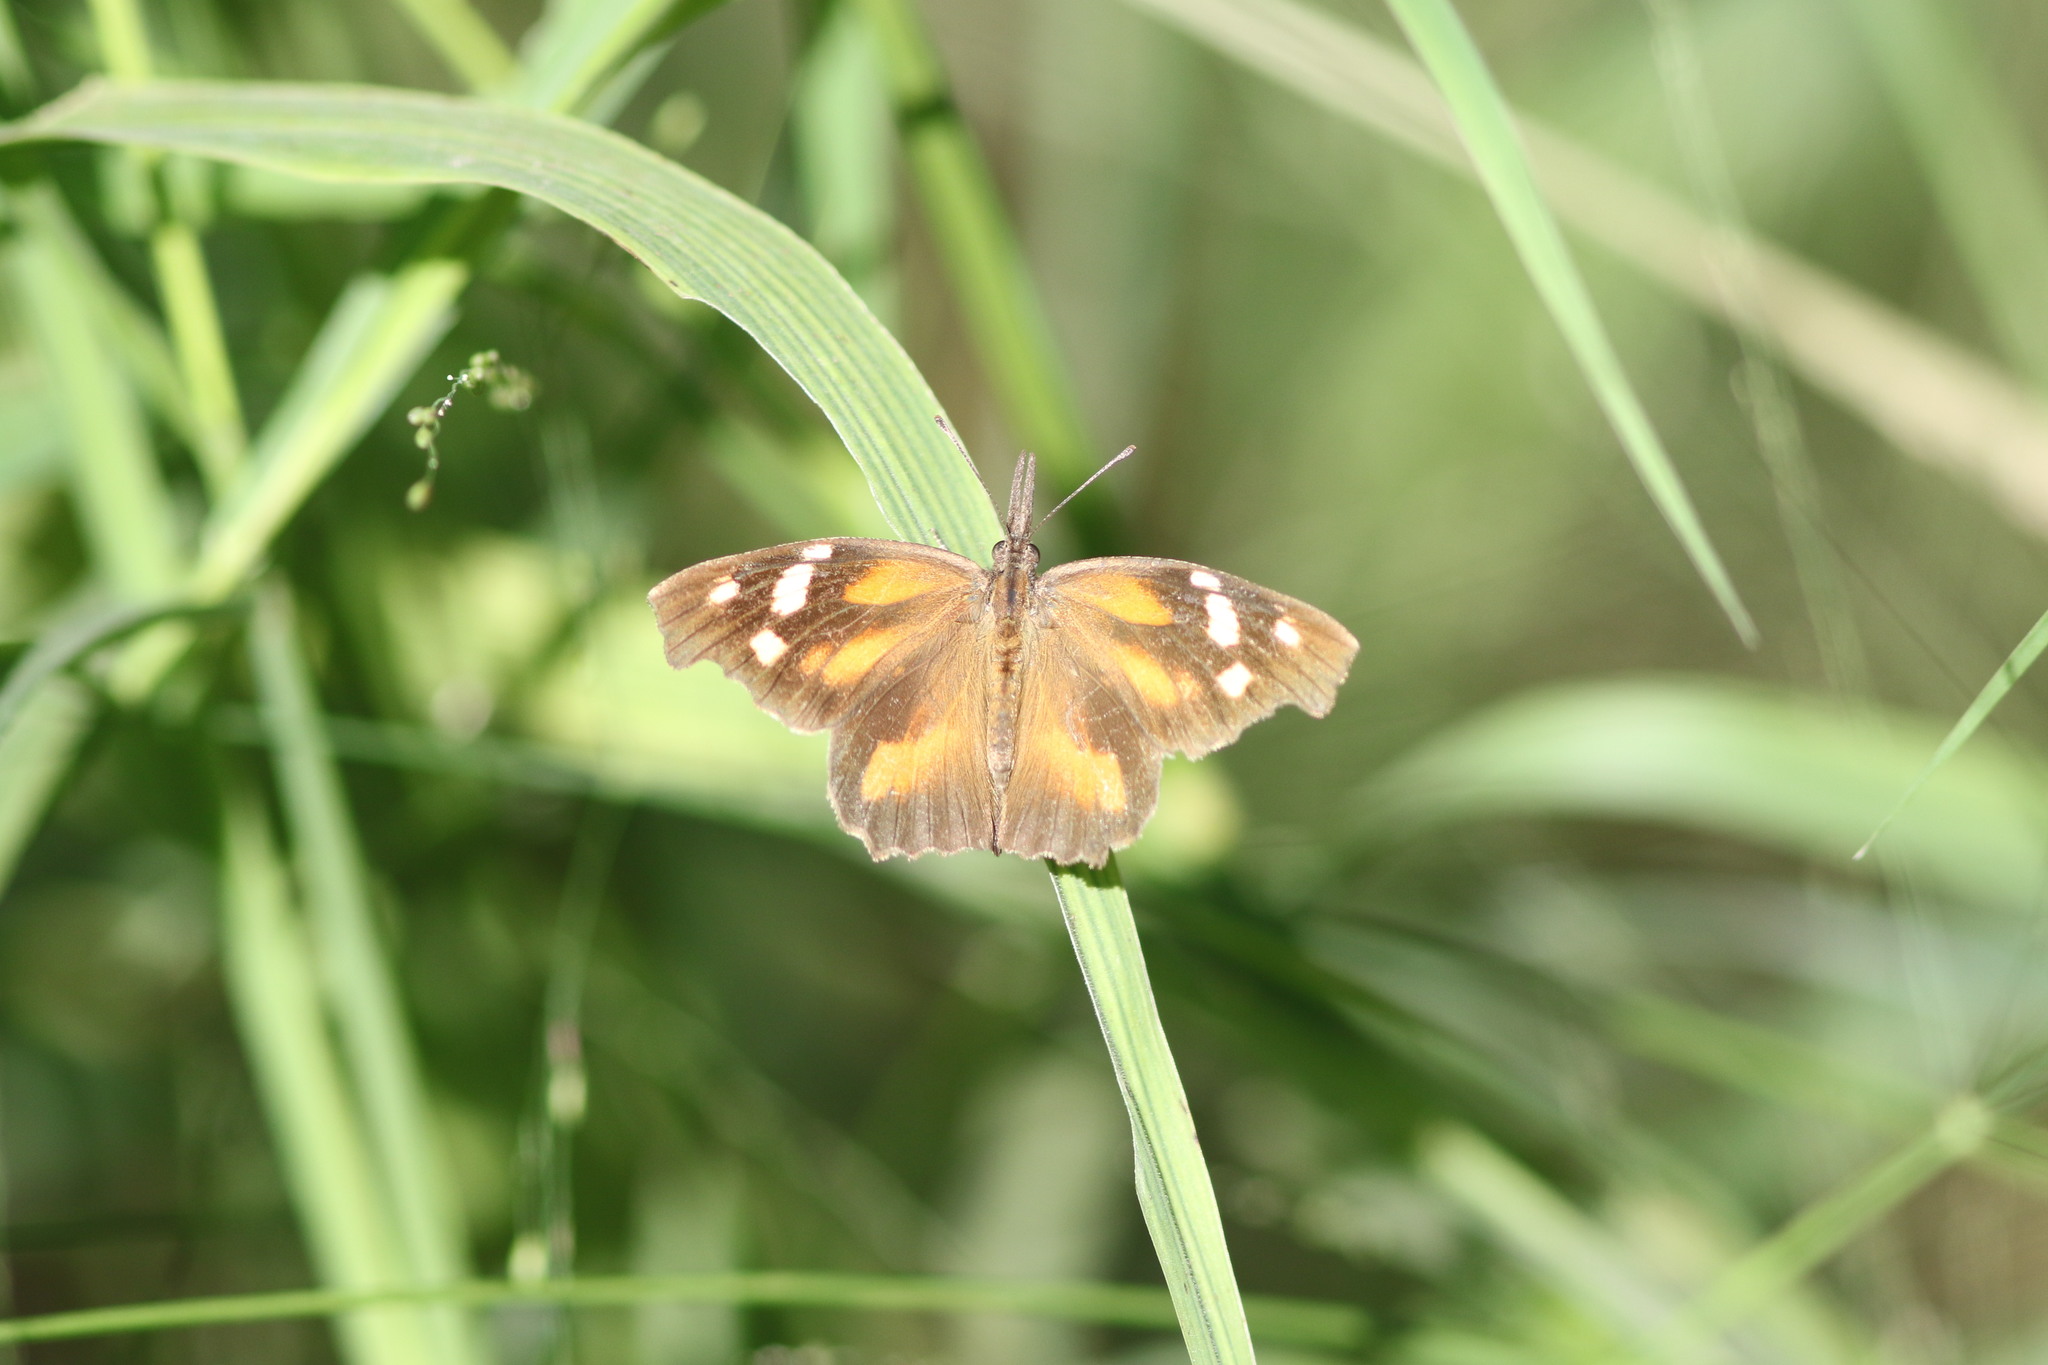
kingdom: Animalia
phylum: Arthropoda
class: Insecta
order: Lepidoptera
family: Nymphalidae
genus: Libytheana
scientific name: Libytheana carinenta
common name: American snout
